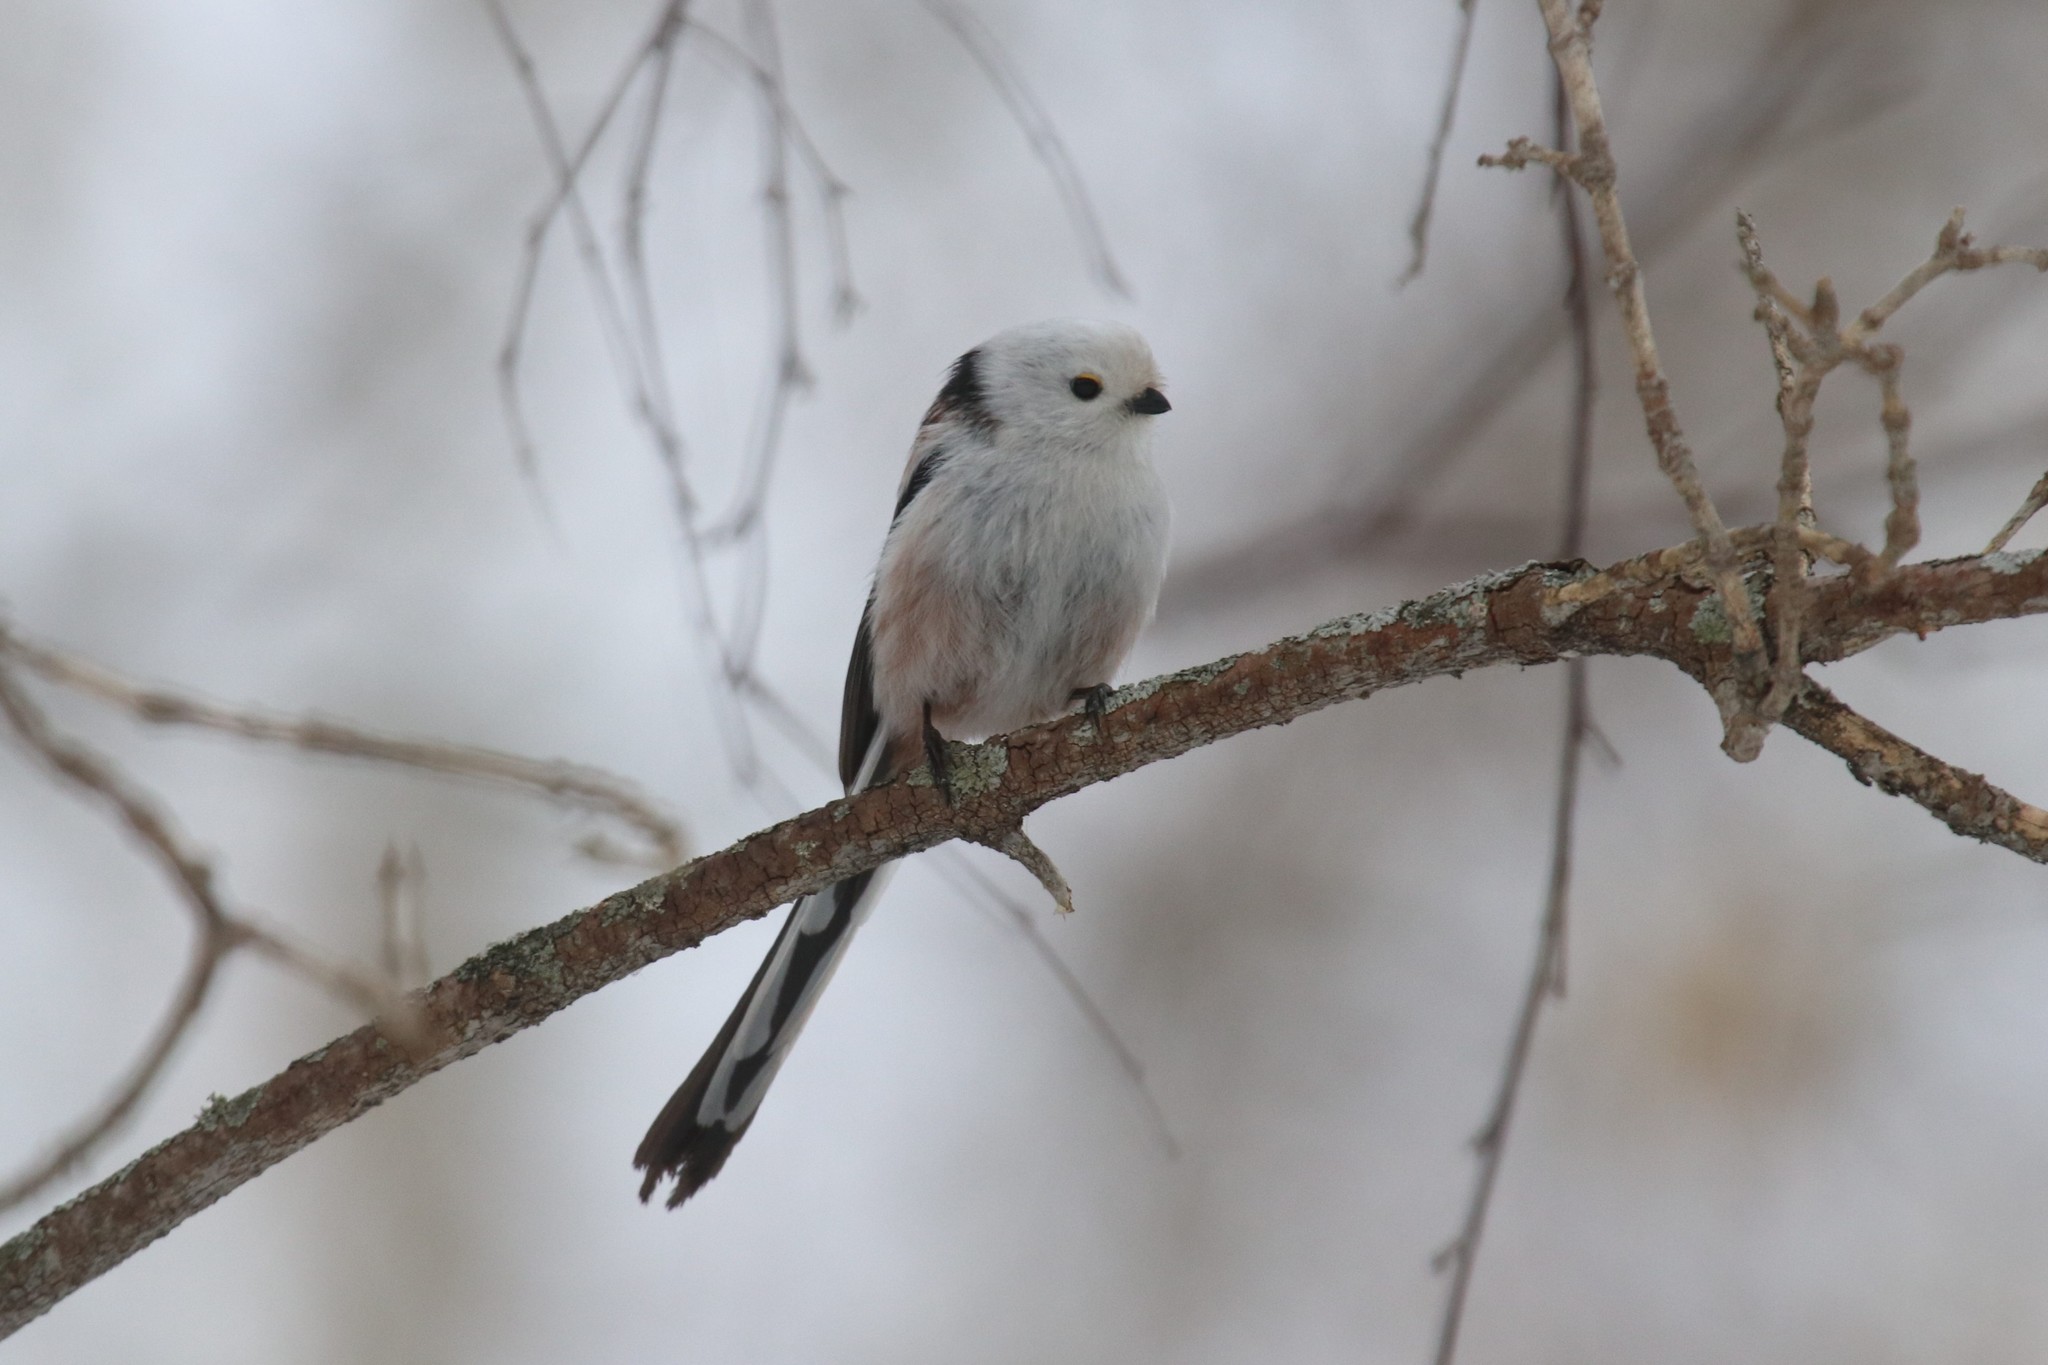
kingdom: Animalia
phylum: Chordata
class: Aves
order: Passeriformes
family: Aegithalidae
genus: Aegithalos
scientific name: Aegithalos caudatus
